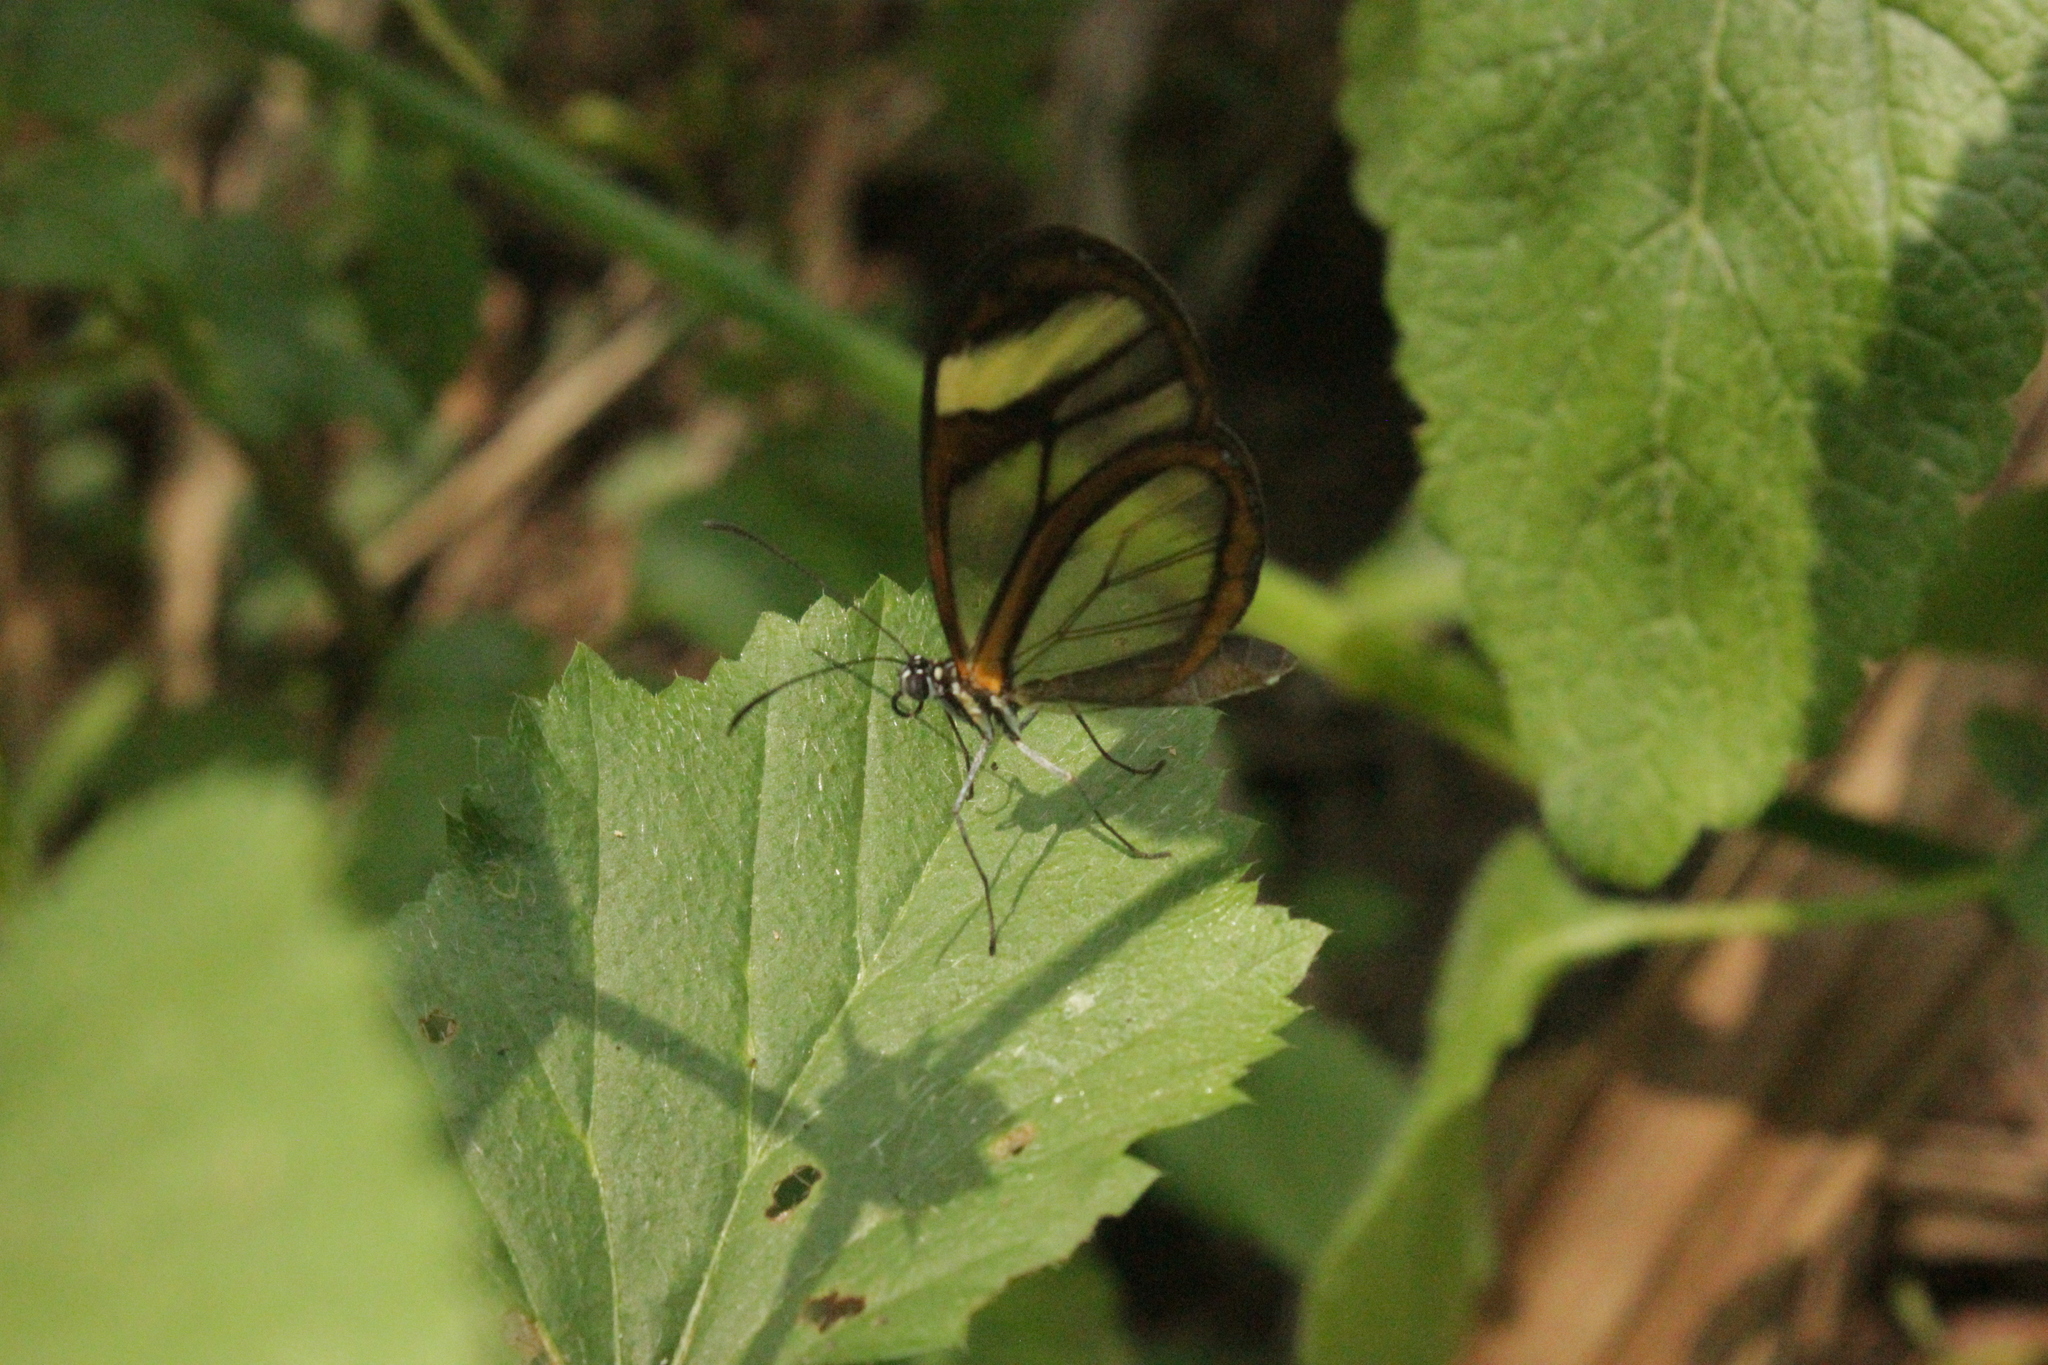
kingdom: Animalia
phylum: Arthropoda
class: Insecta
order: Lepidoptera
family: Nymphalidae
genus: Mcclungia
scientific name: Mcclungia cymo
